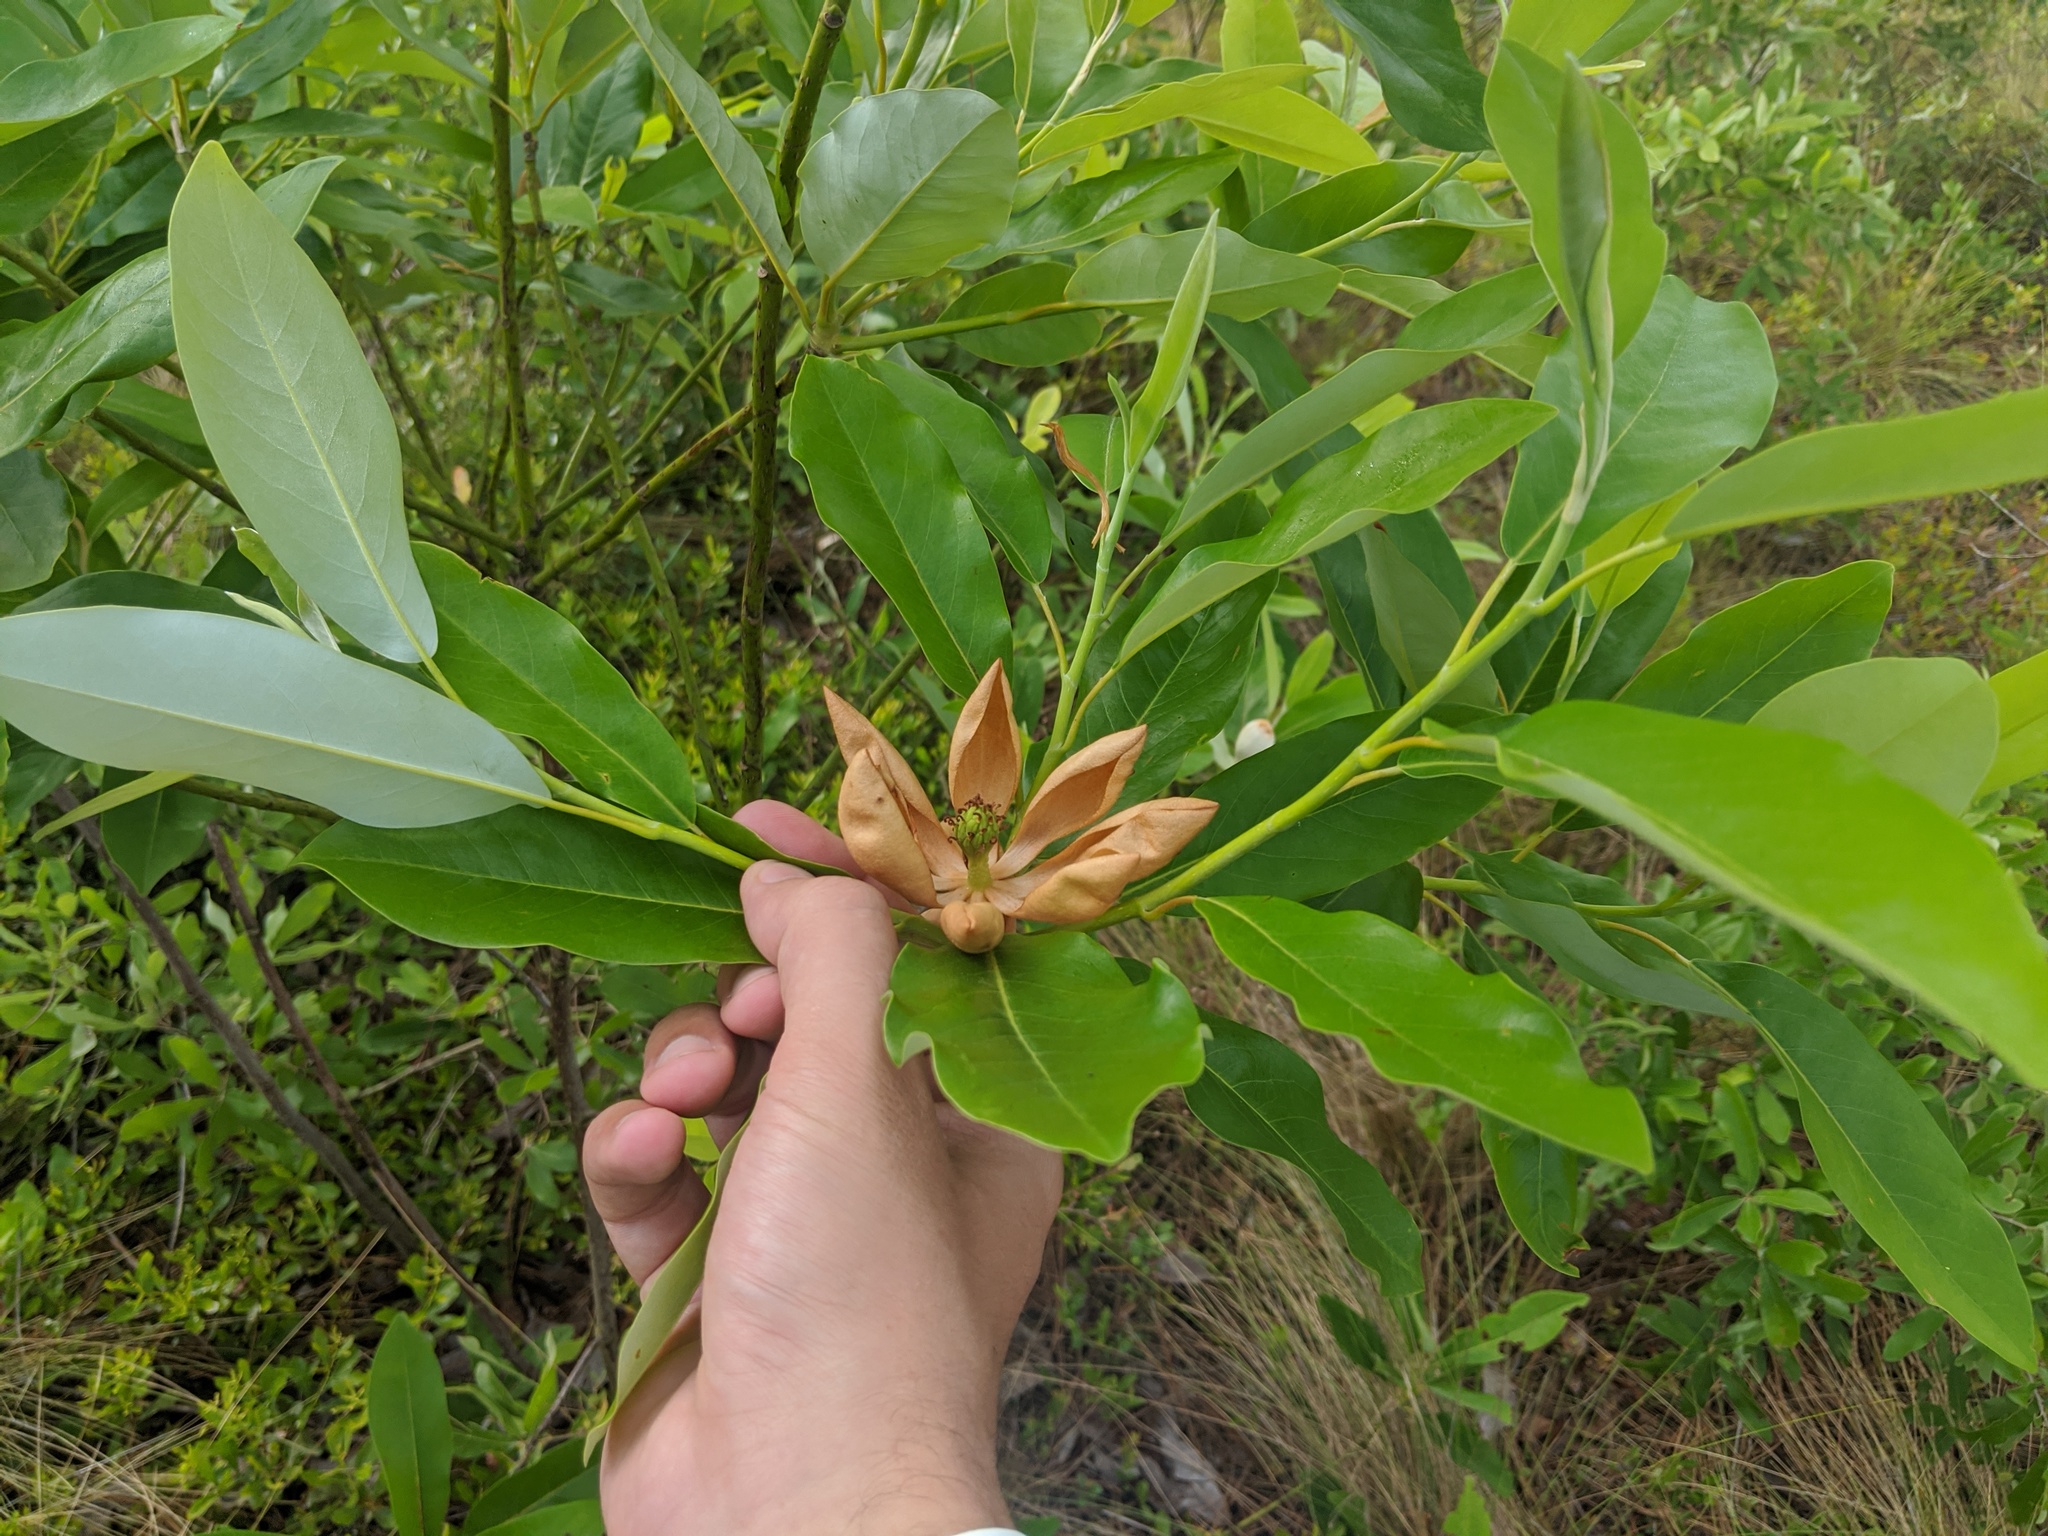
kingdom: Plantae
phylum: Tracheophyta
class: Magnoliopsida
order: Magnoliales
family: Magnoliaceae
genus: Magnolia
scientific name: Magnolia virginiana
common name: Swamp bay
